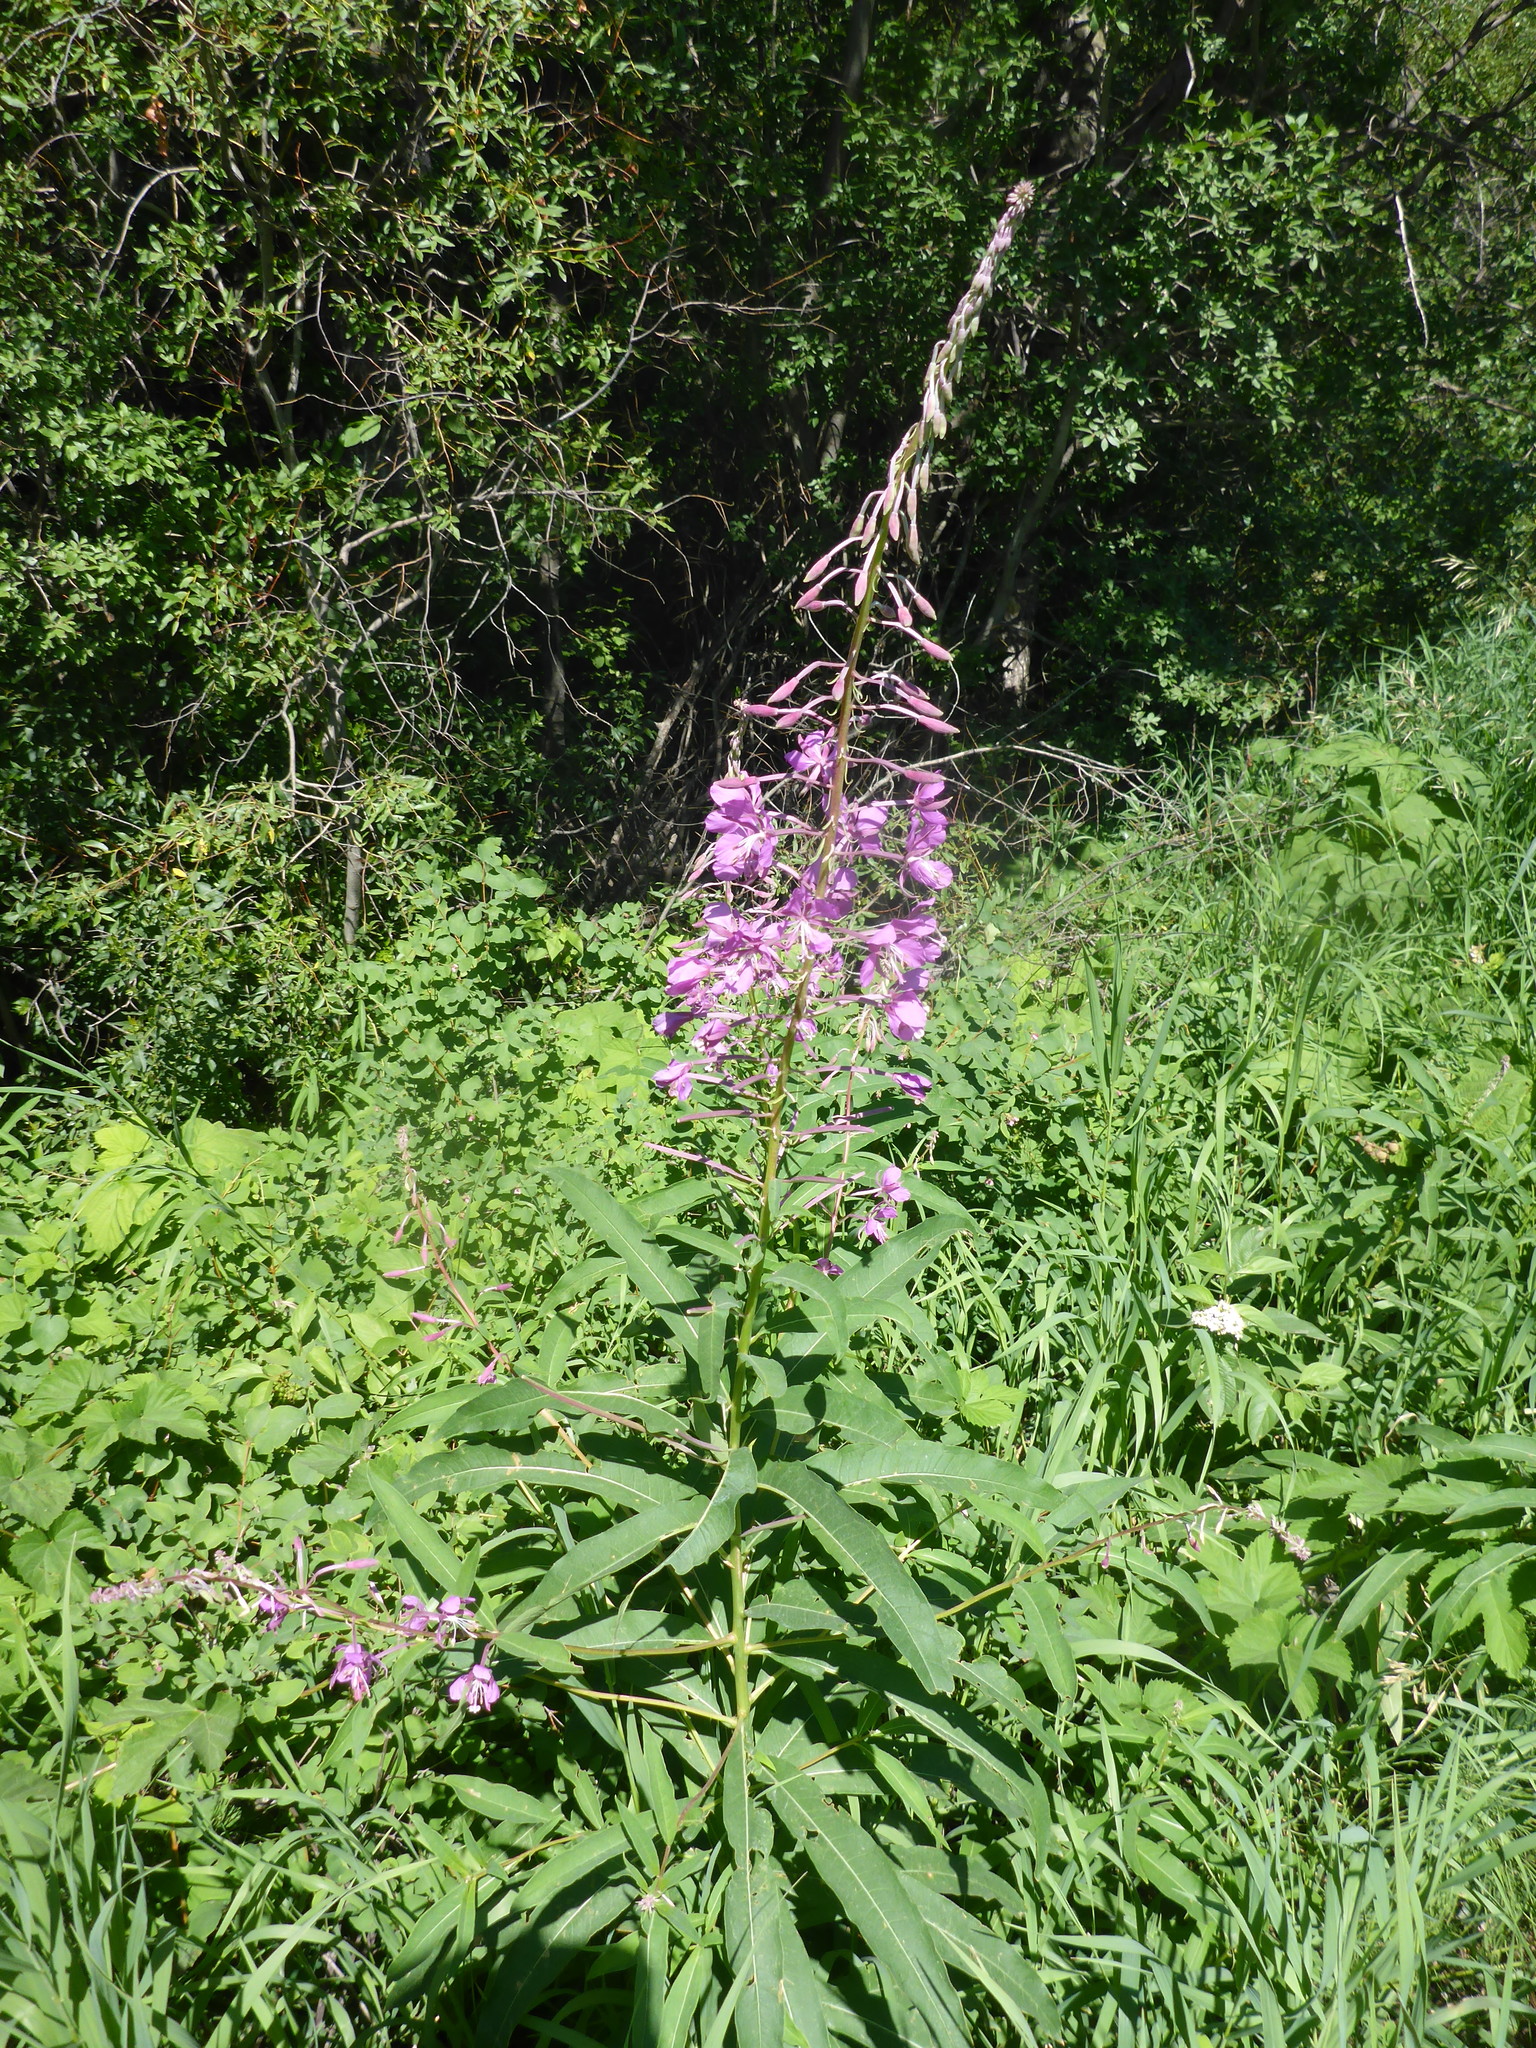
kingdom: Plantae
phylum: Tracheophyta
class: Magnoliopsida
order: Myrtales
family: Onagraceae
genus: Chamaenerion
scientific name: Chamaenerion angustifolium
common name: Fireweed
